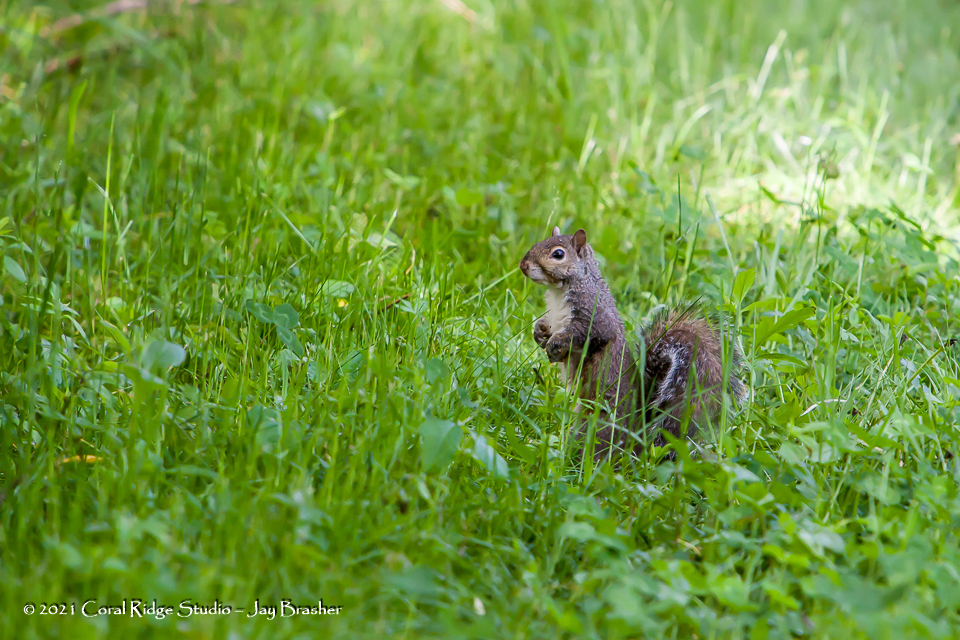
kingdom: Animalia
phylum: Chordata
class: Mammalia
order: Rodentia
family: Sciuridae
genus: Sciurus
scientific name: Sciurus carolinensis
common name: Eastern gray squirrel
